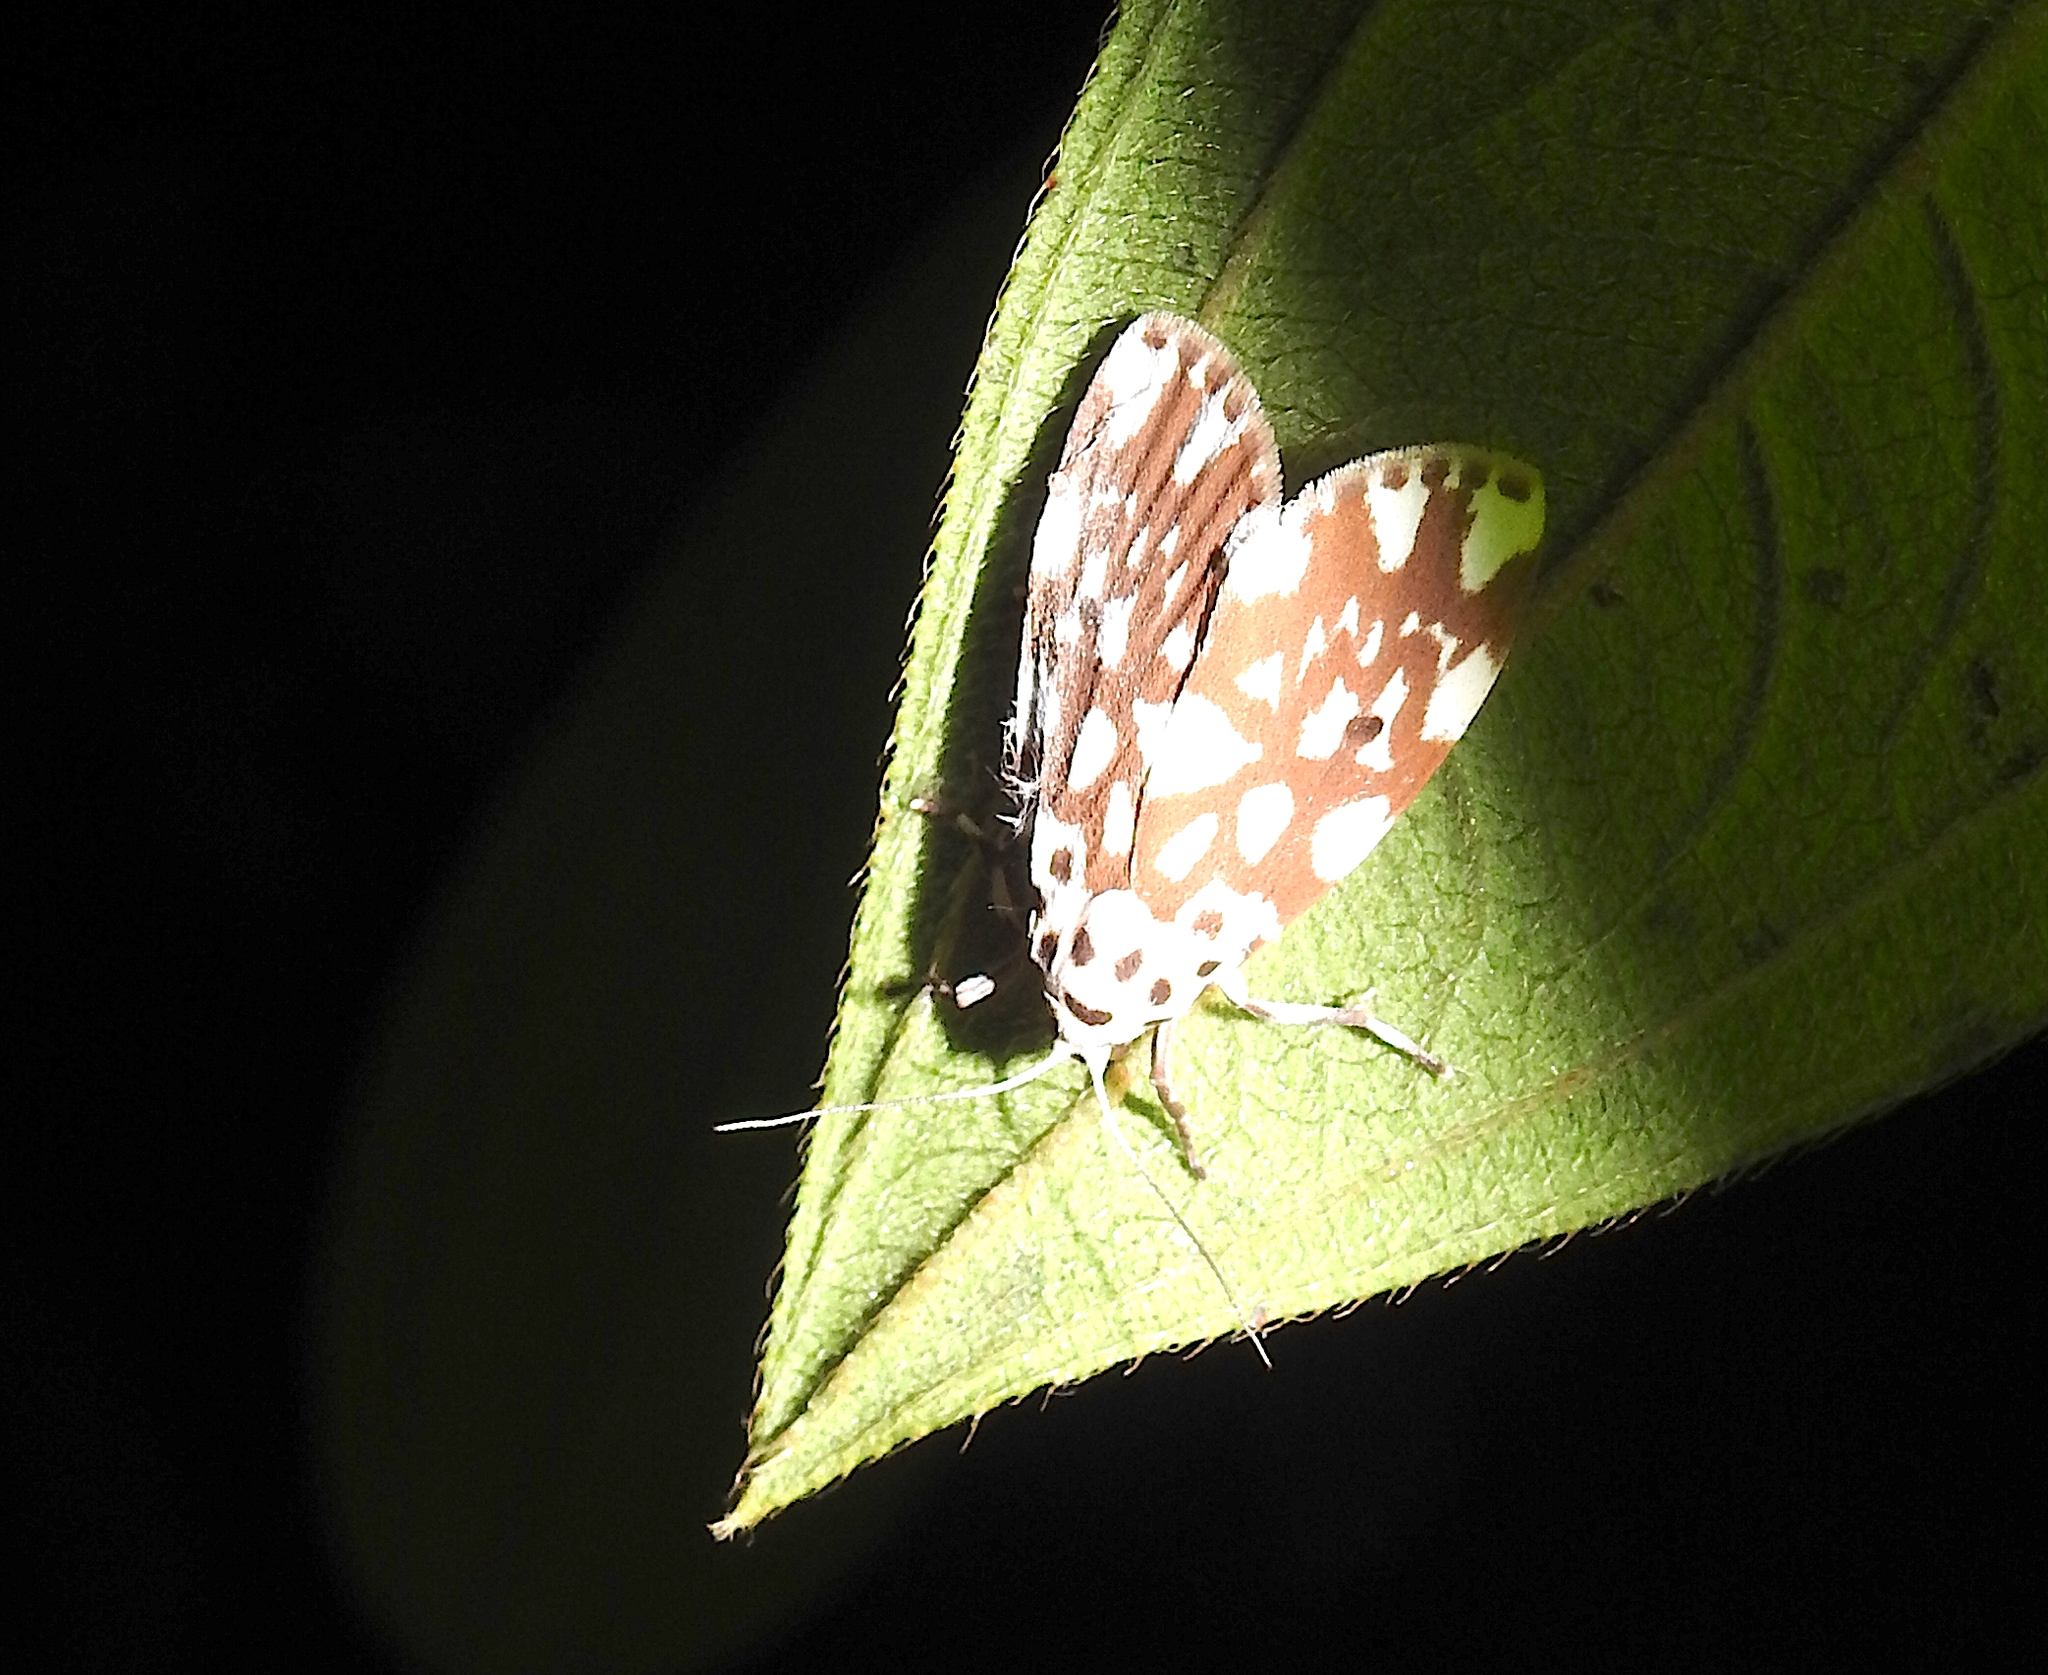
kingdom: Animalia
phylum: Arthropoda
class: Insecta
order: Lepidoptera
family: Erebidae
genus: Adites
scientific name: Adites pseudohilaris
